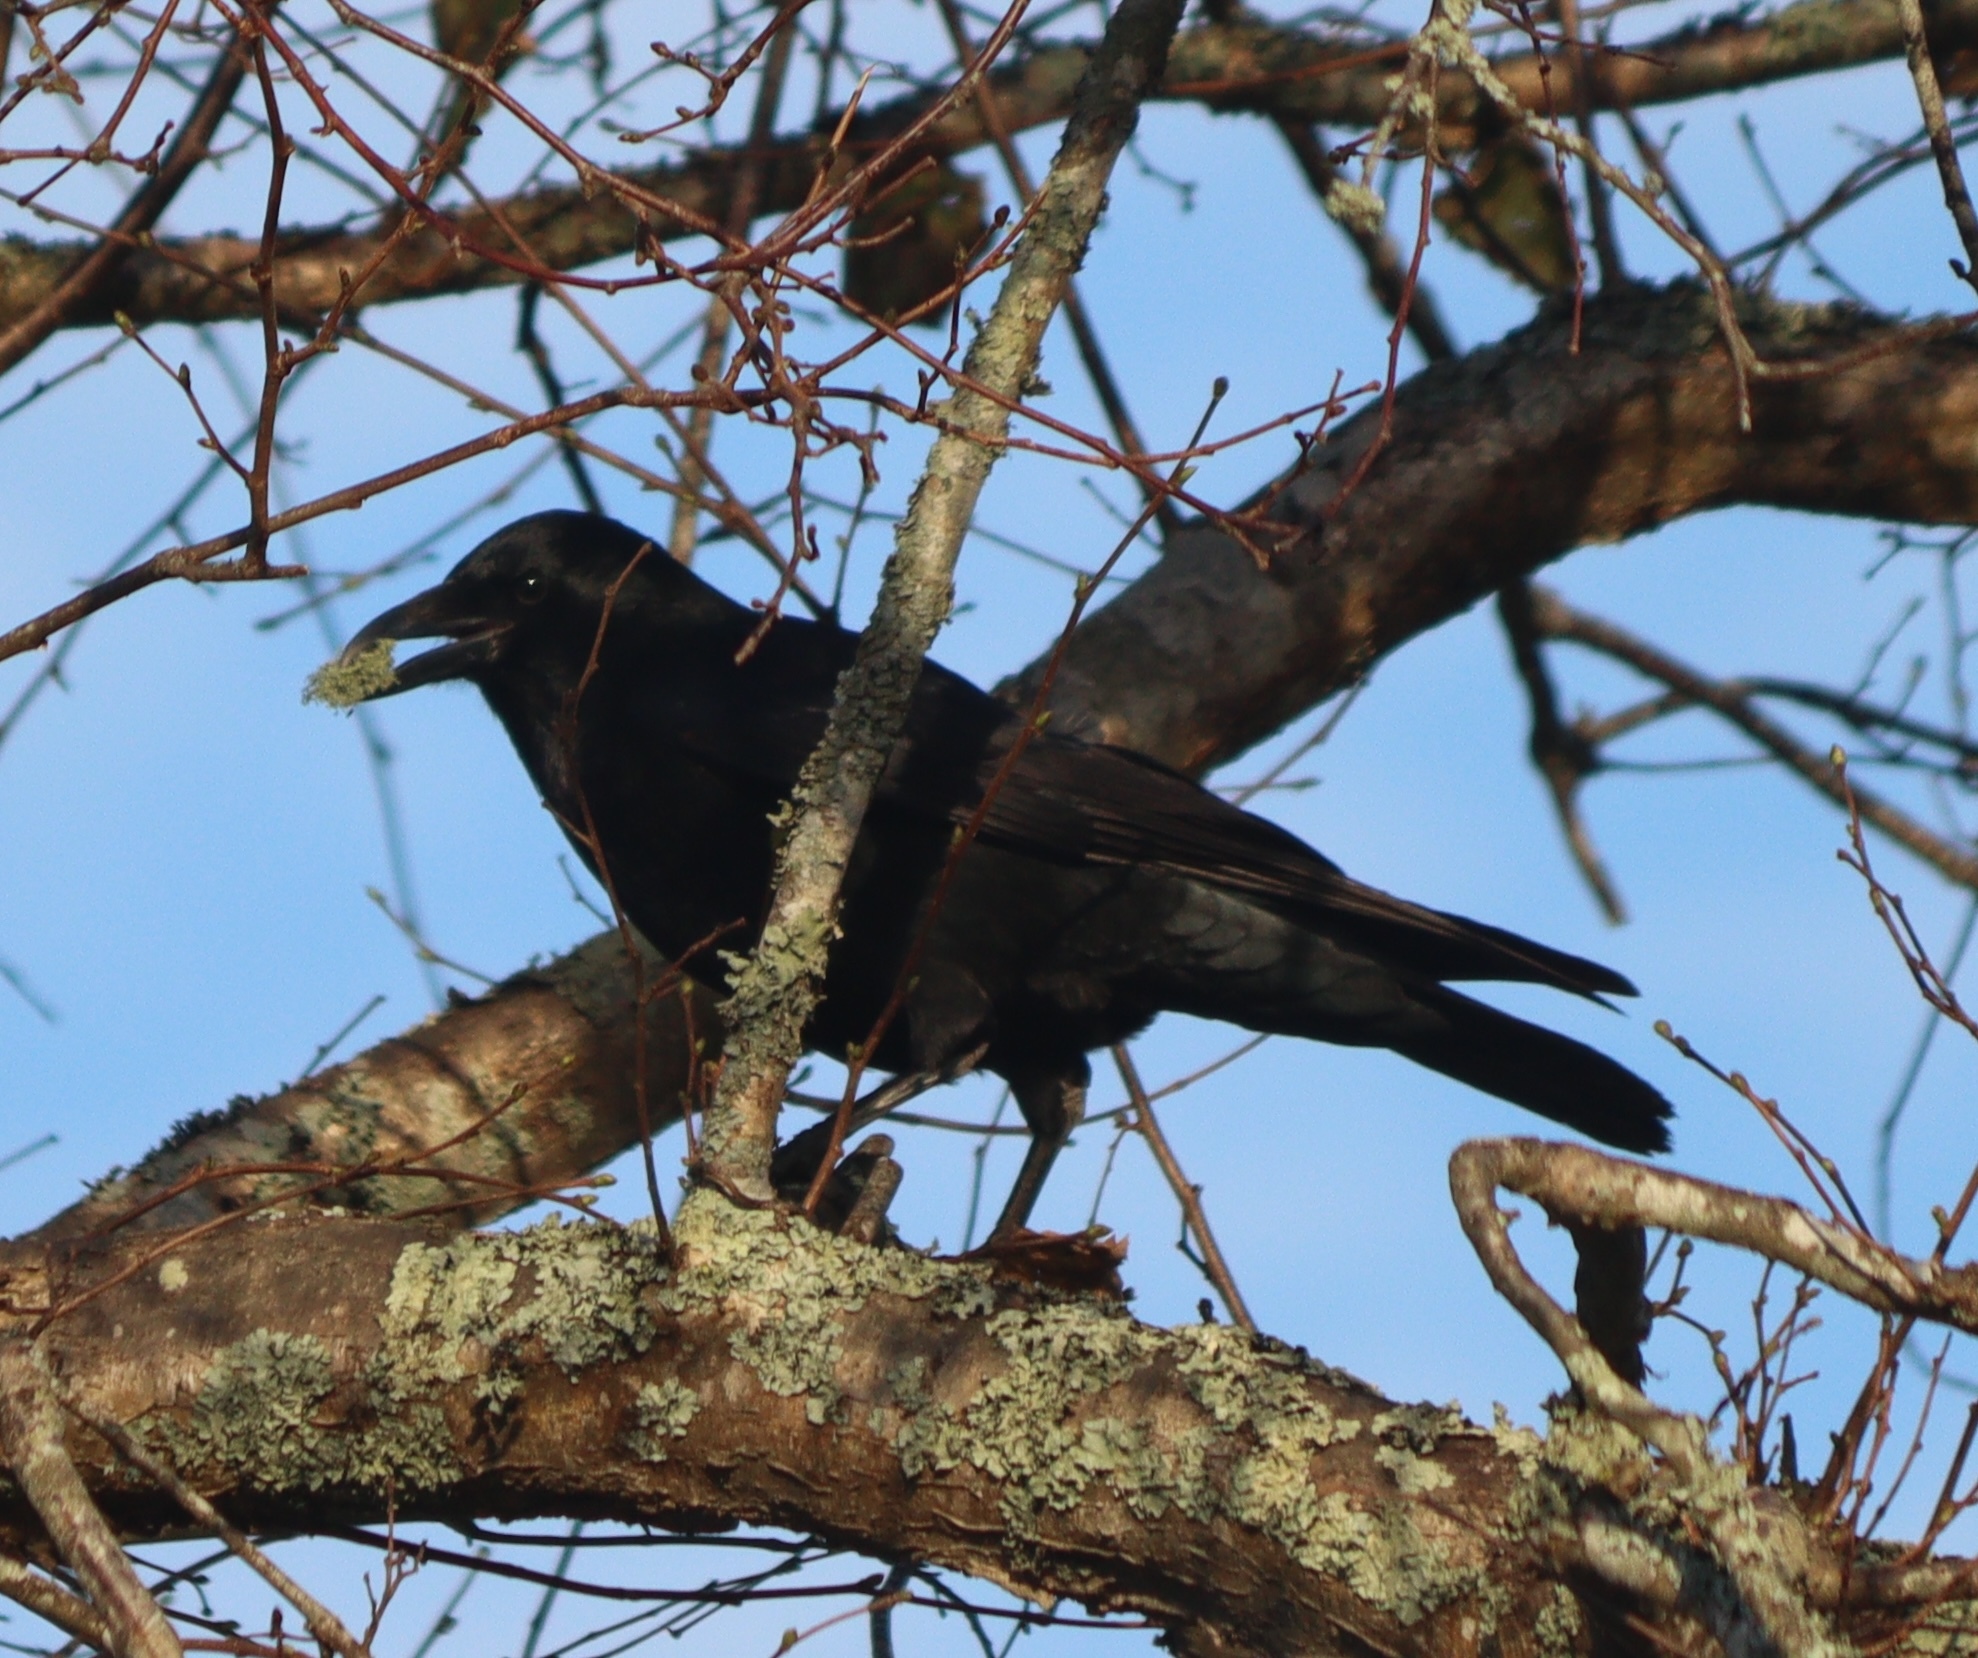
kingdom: Animalia
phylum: Chordata
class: Aves
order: Passeriformes
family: Corvidae
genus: Corvus
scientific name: Corvus corone
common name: Carrion crow
